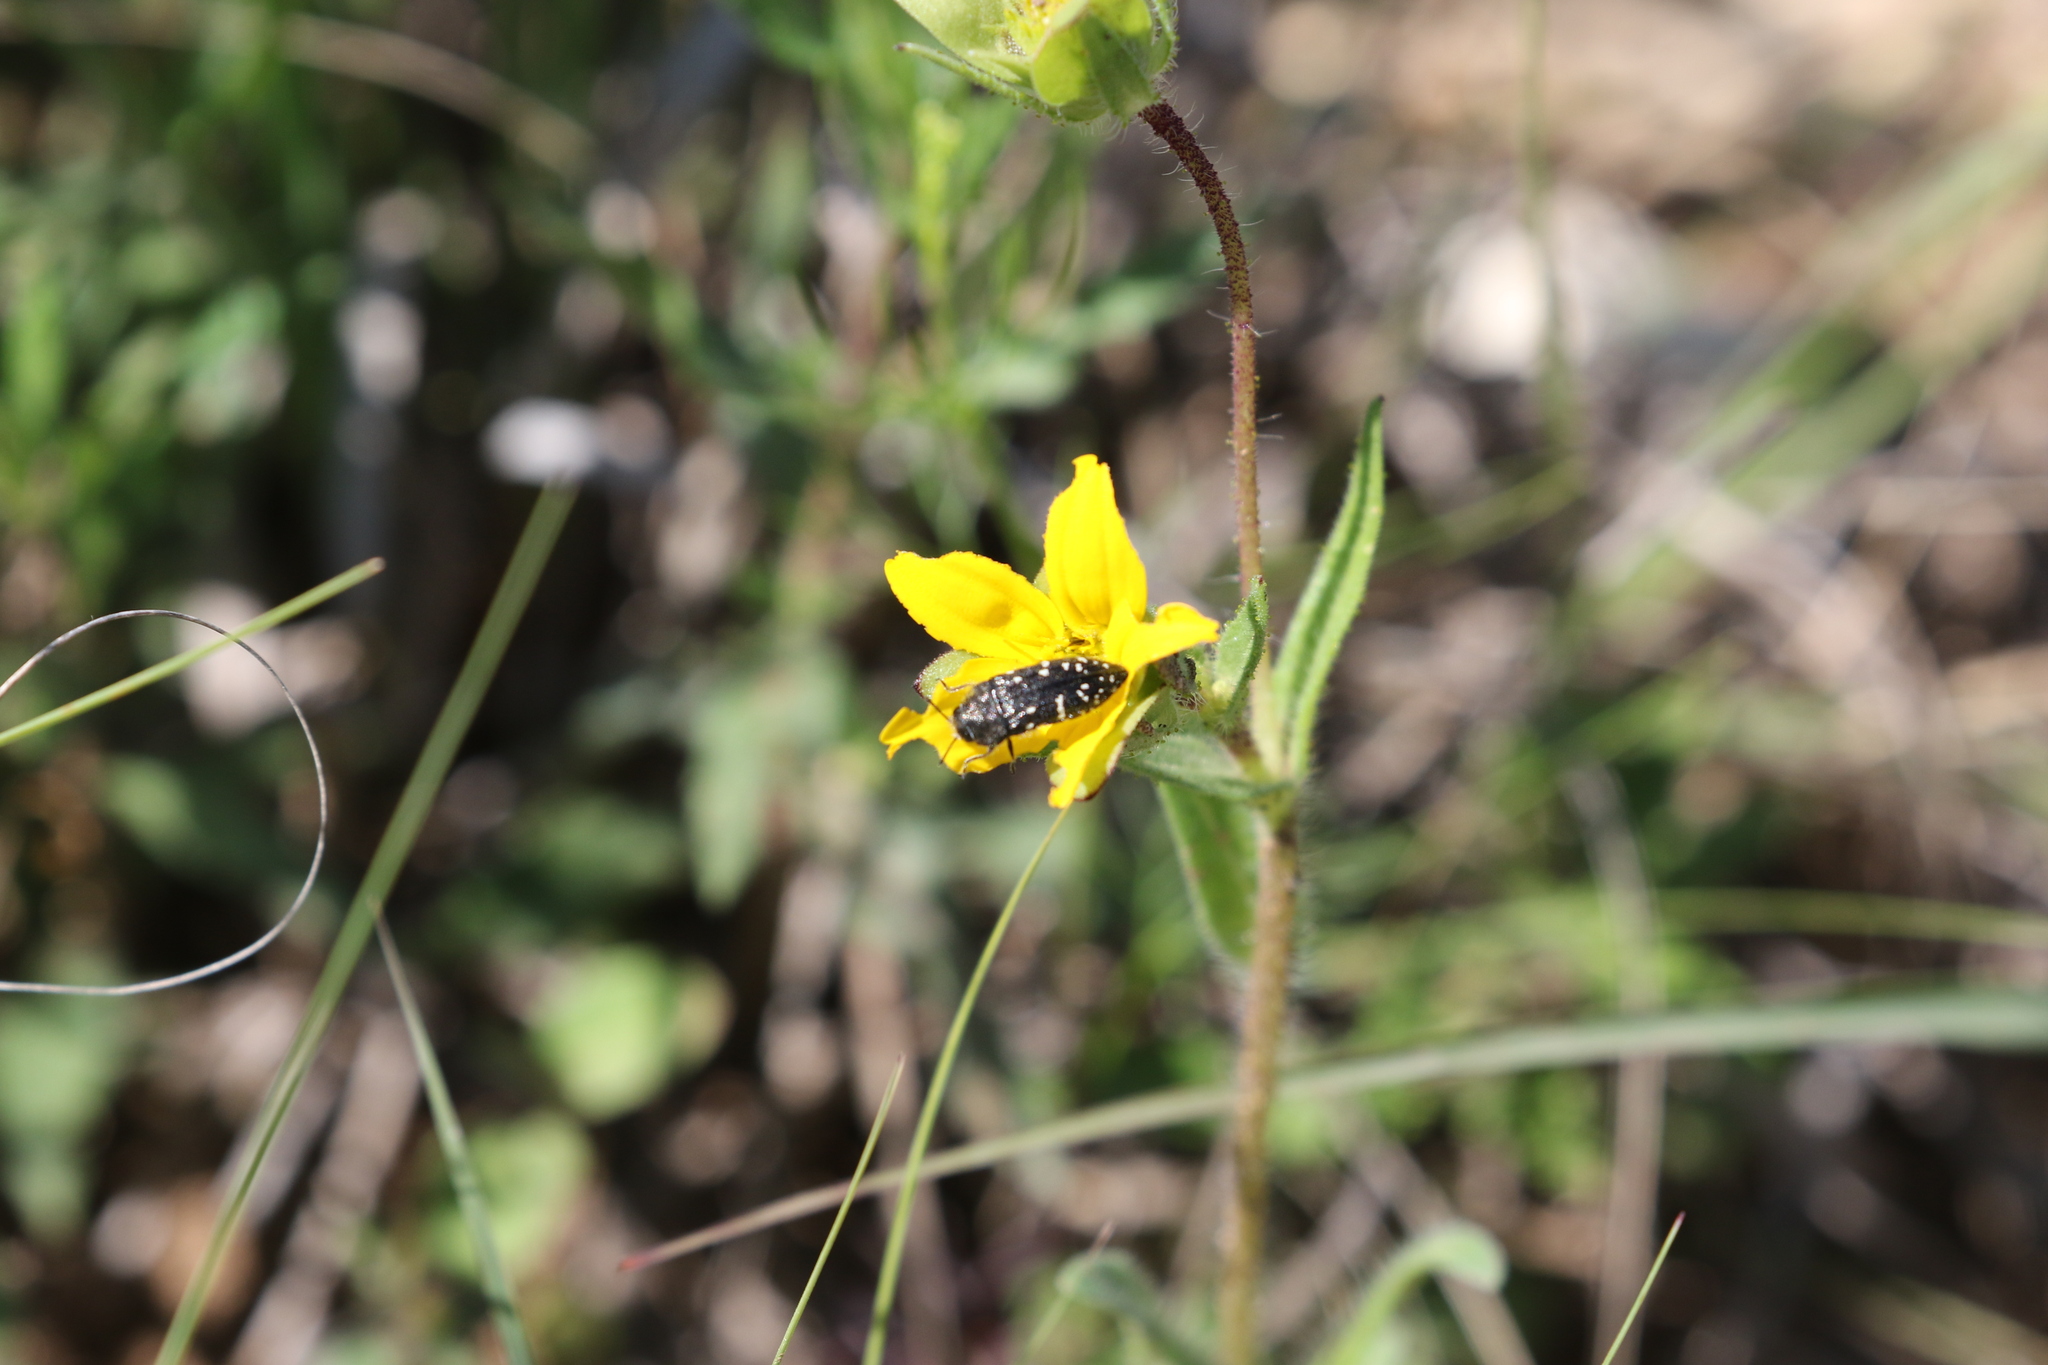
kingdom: Animalia
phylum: Arthropoda
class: Insecta
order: Coleoptera
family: Buprestidae
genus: Acmaeodera
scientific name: Acmaeodera ornatoides
